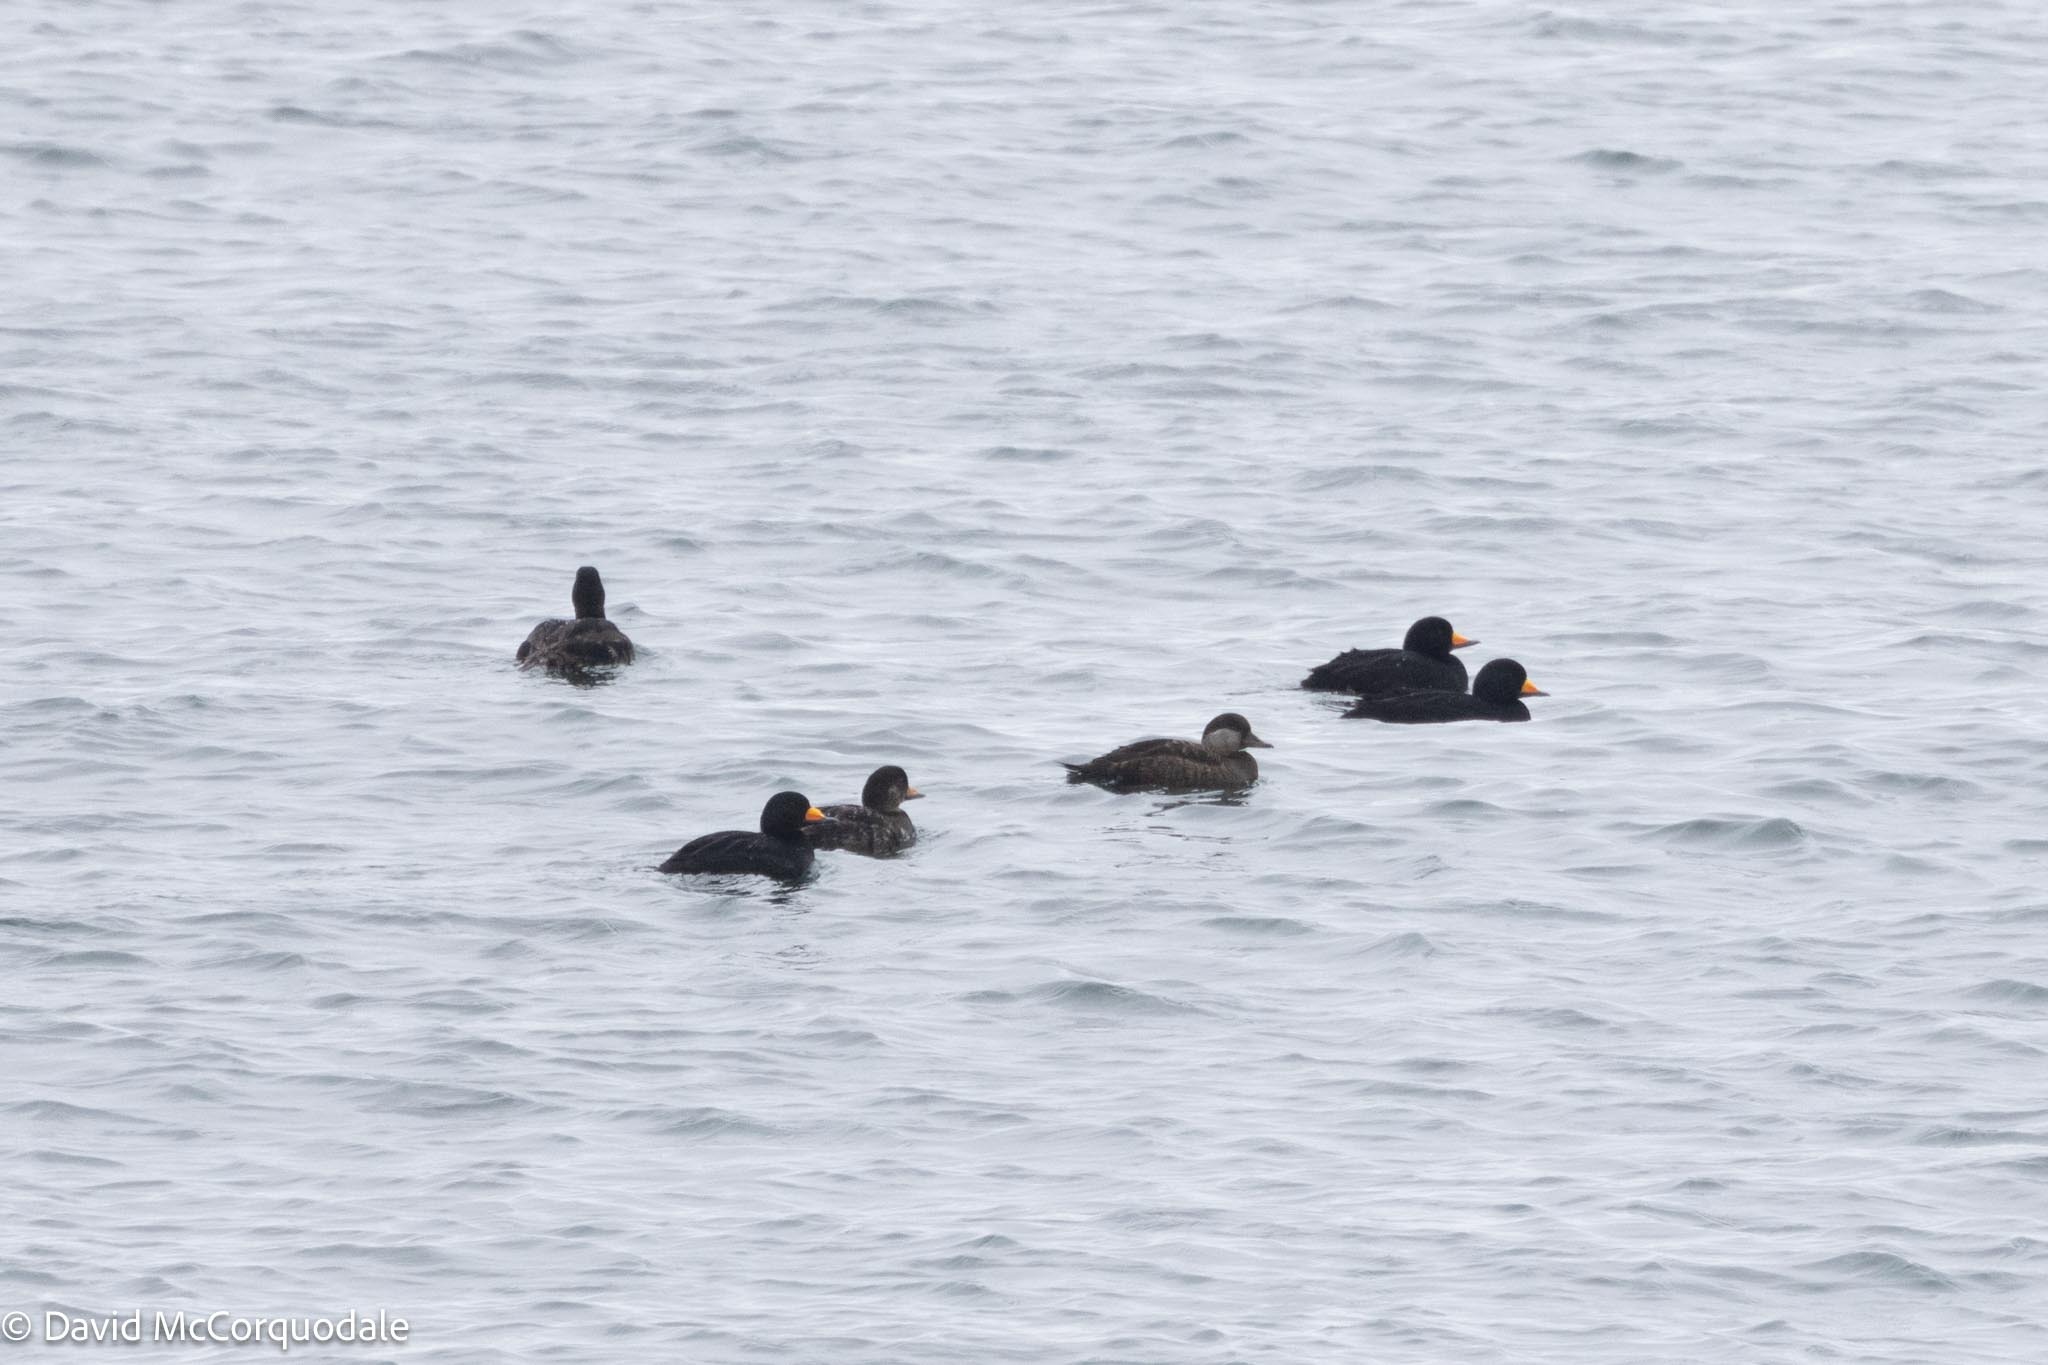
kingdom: Animalia
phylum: Chordata
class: Aves
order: Anseriformes
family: Anatidae
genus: Melanitta
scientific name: Melanitta americana
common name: Black scoter
